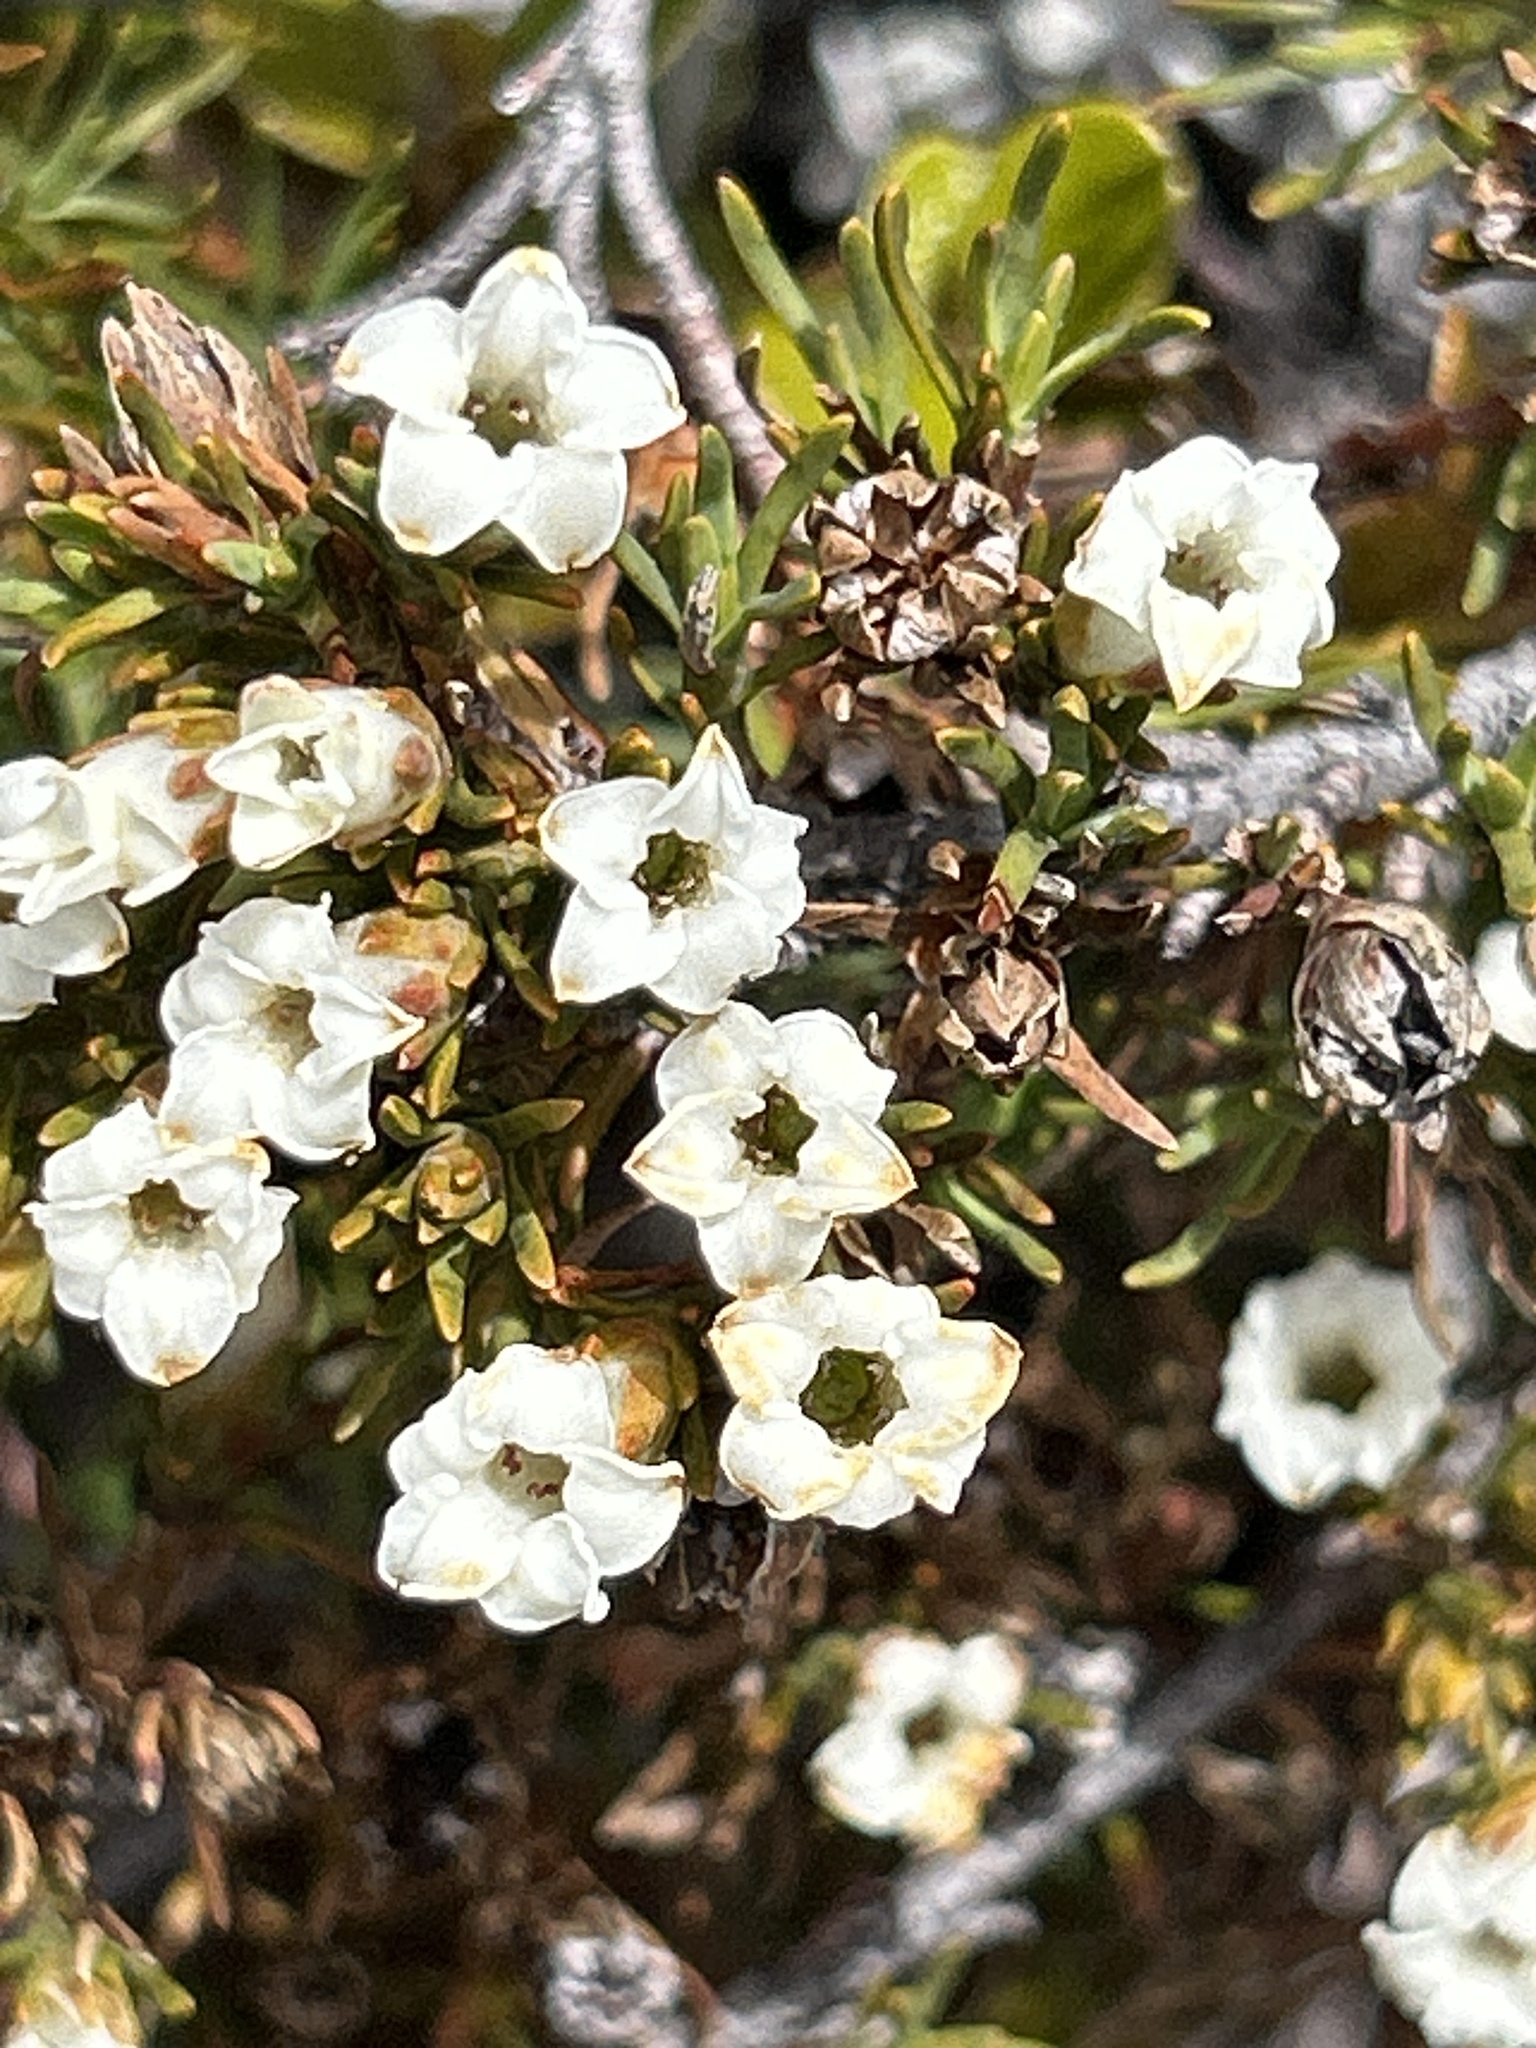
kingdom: Plantae
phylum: Tracheophyta
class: Magnoliopsida
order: Ericales
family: Ericaceae
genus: Dracophyllum
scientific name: Dracophyllum pronum
